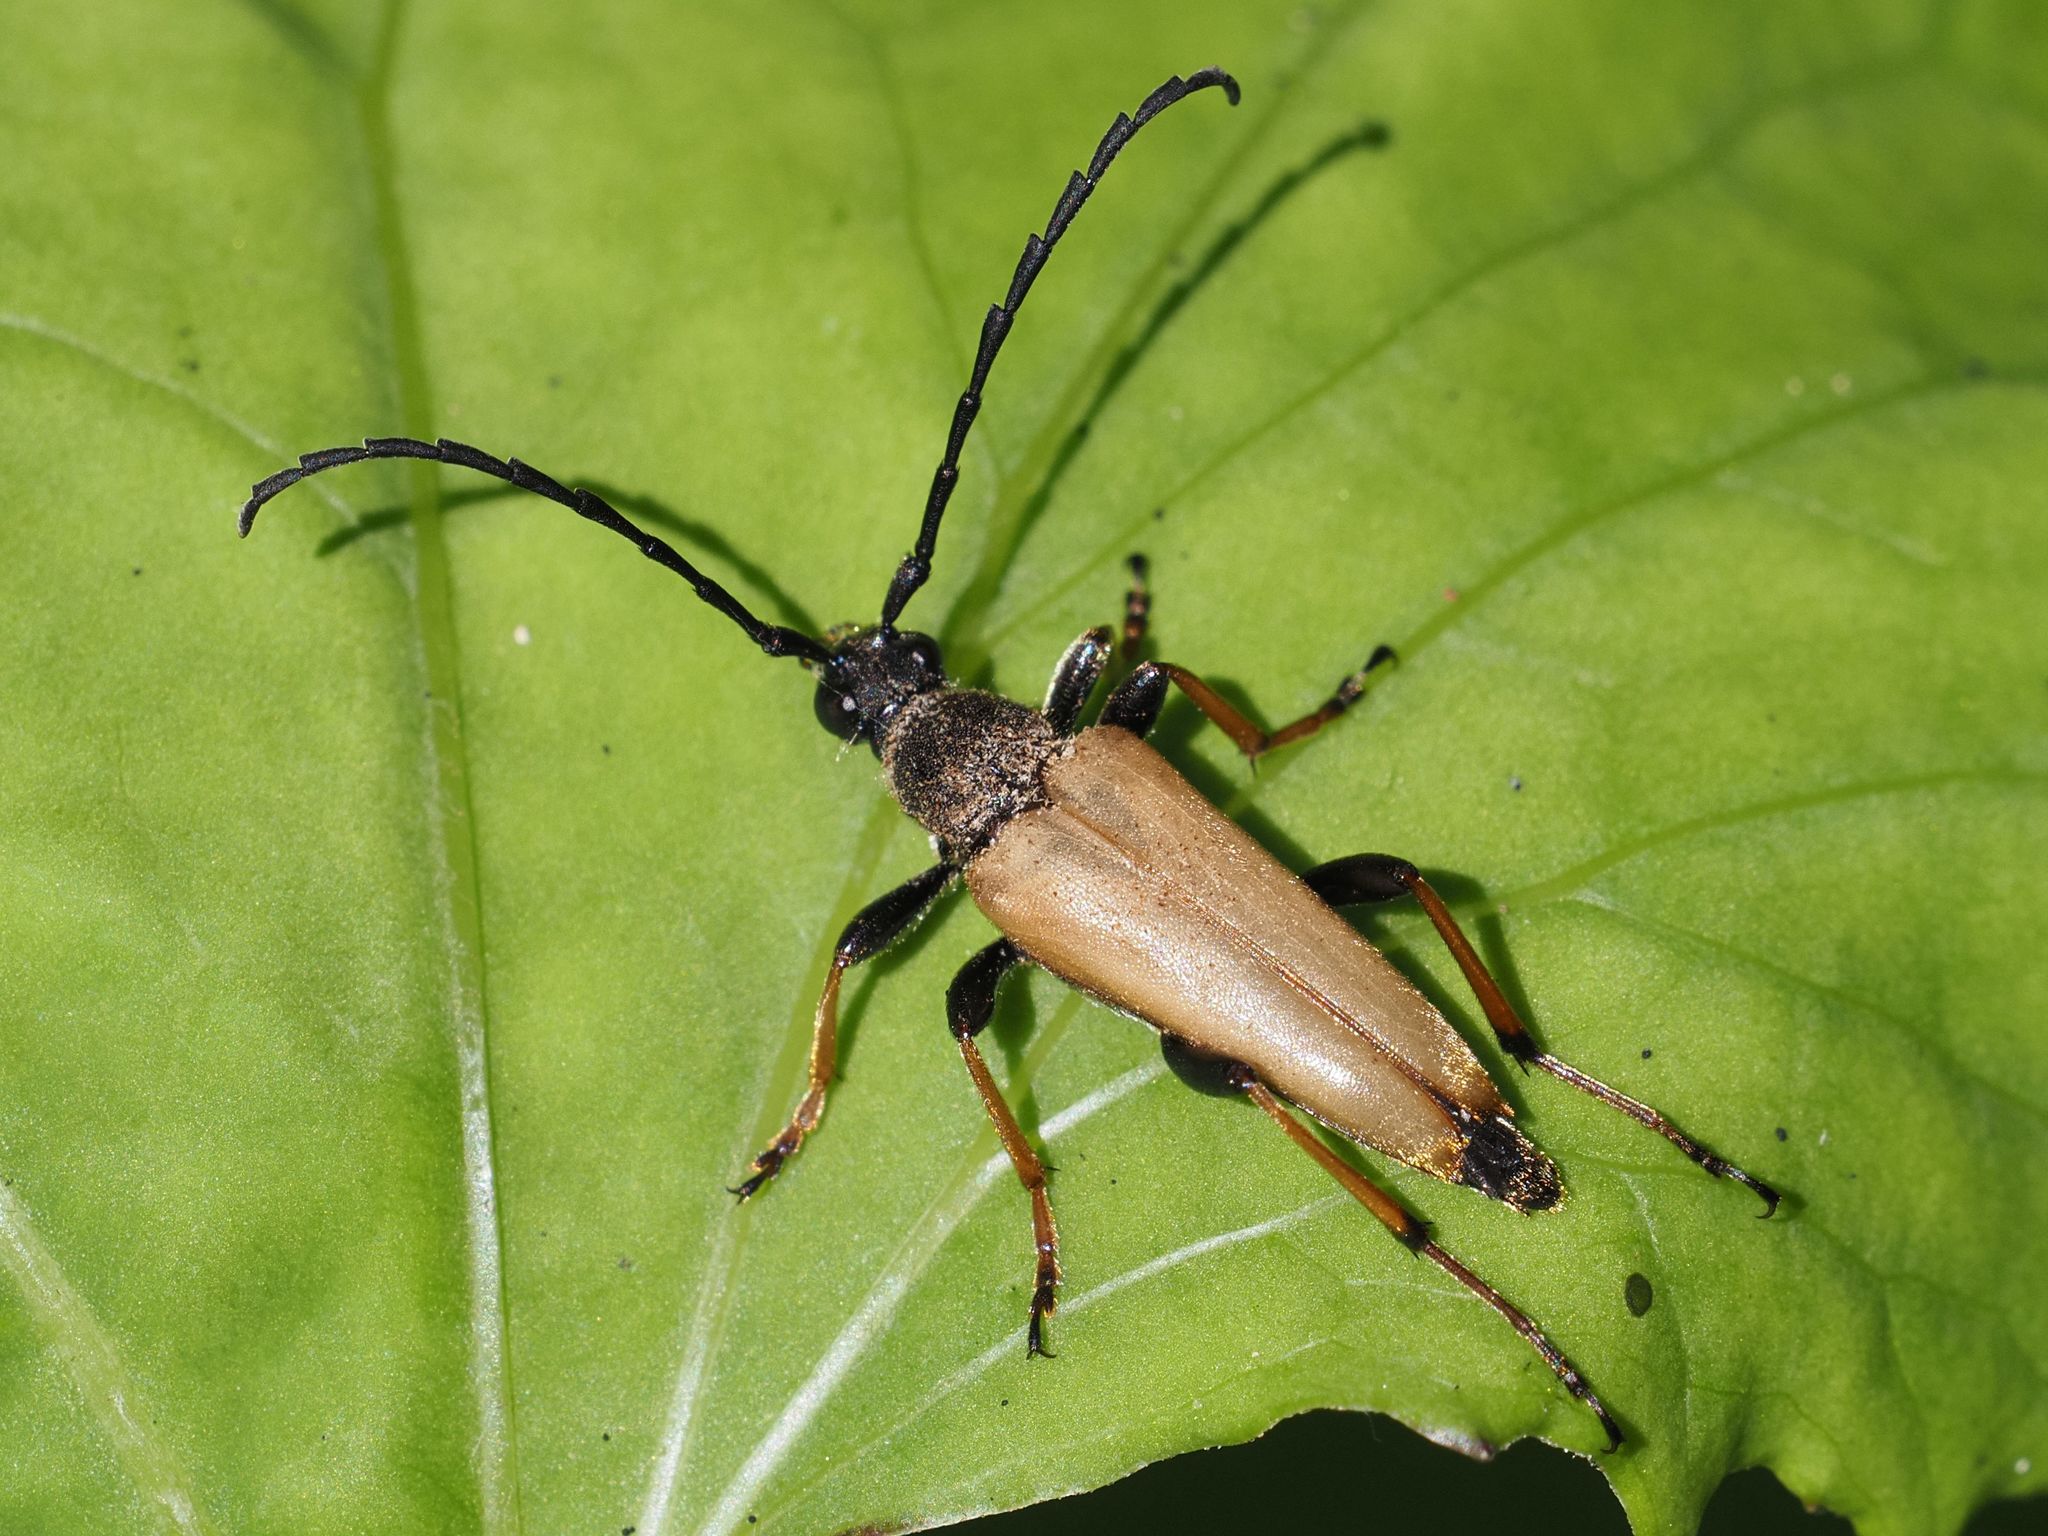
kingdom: Animalia
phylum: Arthropoda
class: Insecta
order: Coleoptera
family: Cerambycidae
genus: Stictoleptura
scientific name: Stictoleptura rubra
